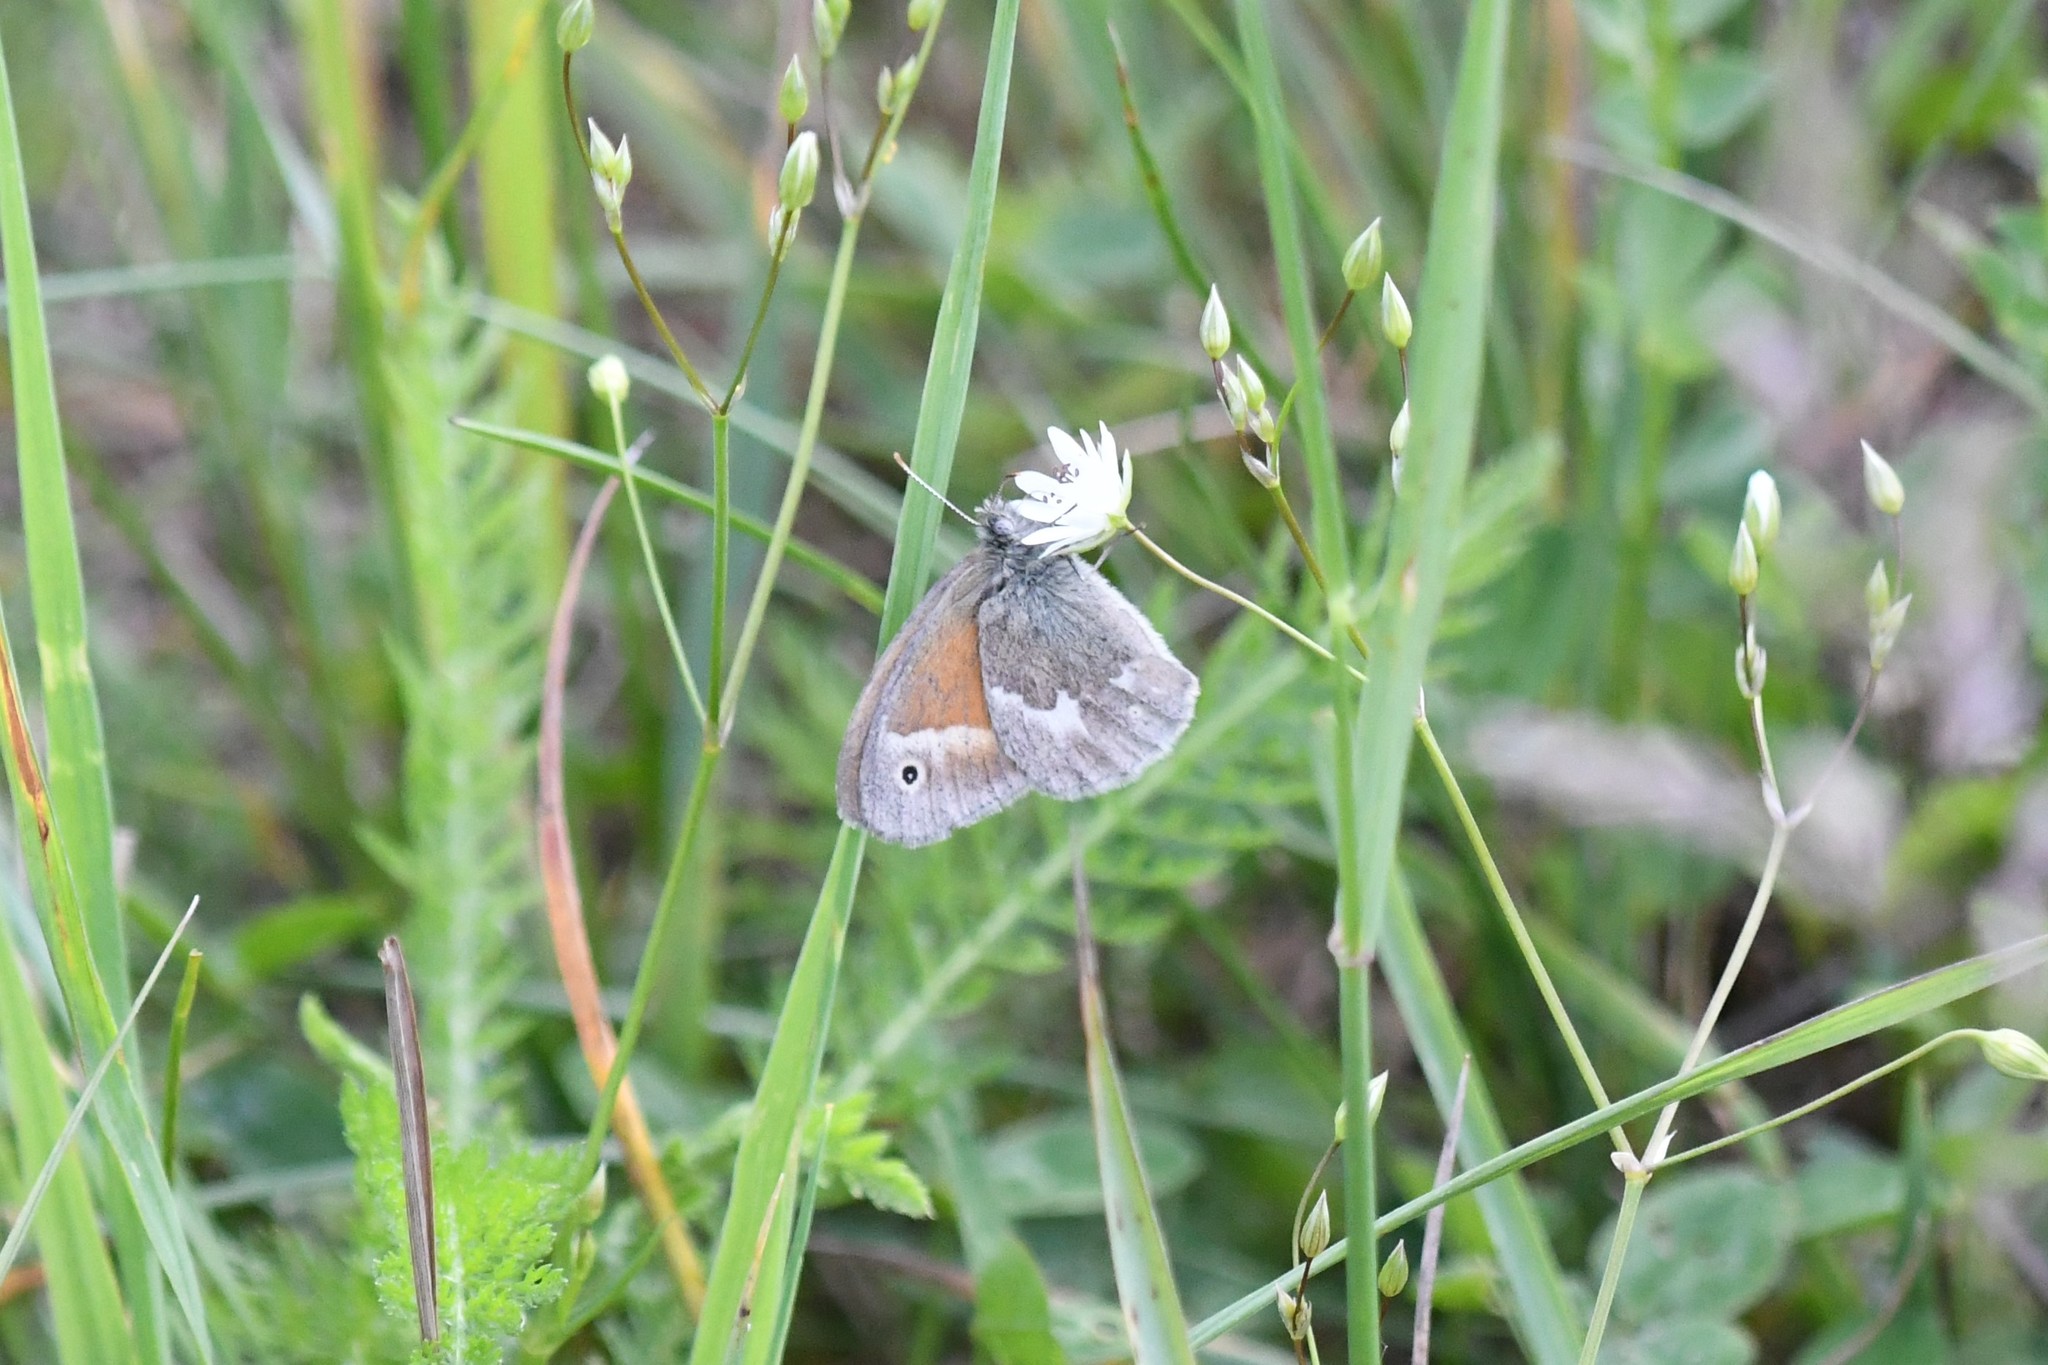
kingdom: Animalia
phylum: Arthropoda
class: Insecta
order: Lepidoptera
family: Nymphalidae
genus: Coenonympha
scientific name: Coenonympha california
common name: Common ringlet
